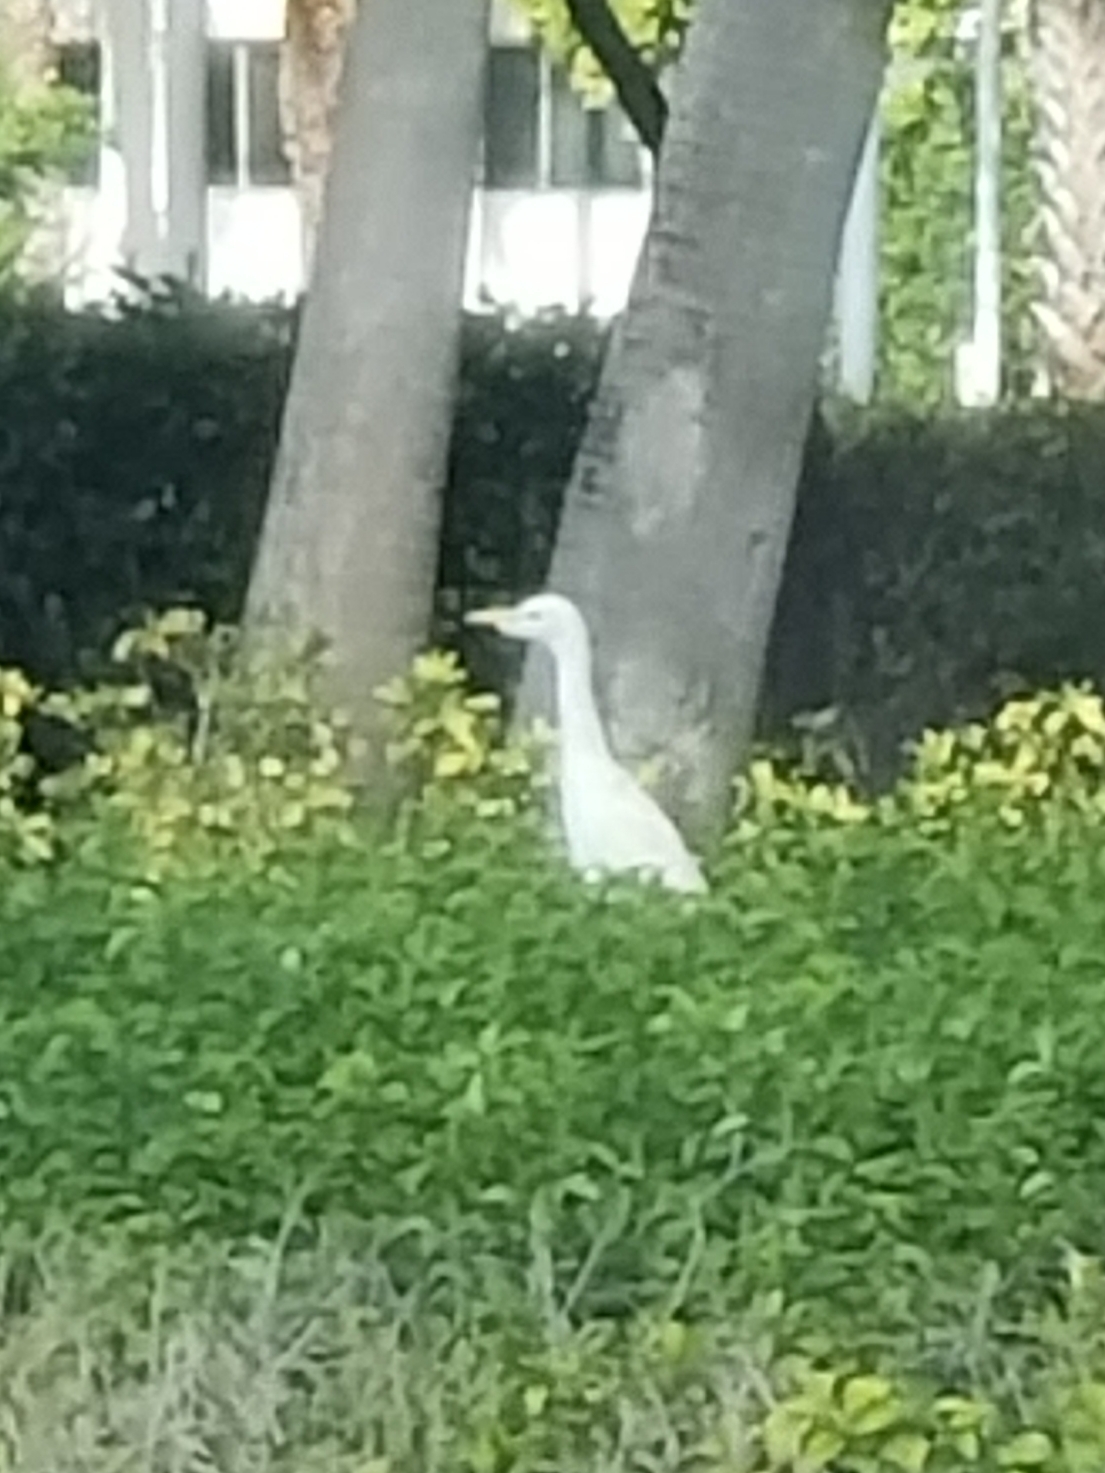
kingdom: Animalia
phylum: Chordata
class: Aves
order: Pelecaniformes
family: Ardeidae
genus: Bubulcus
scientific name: Bubulcus ibis
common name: Cattle egret
